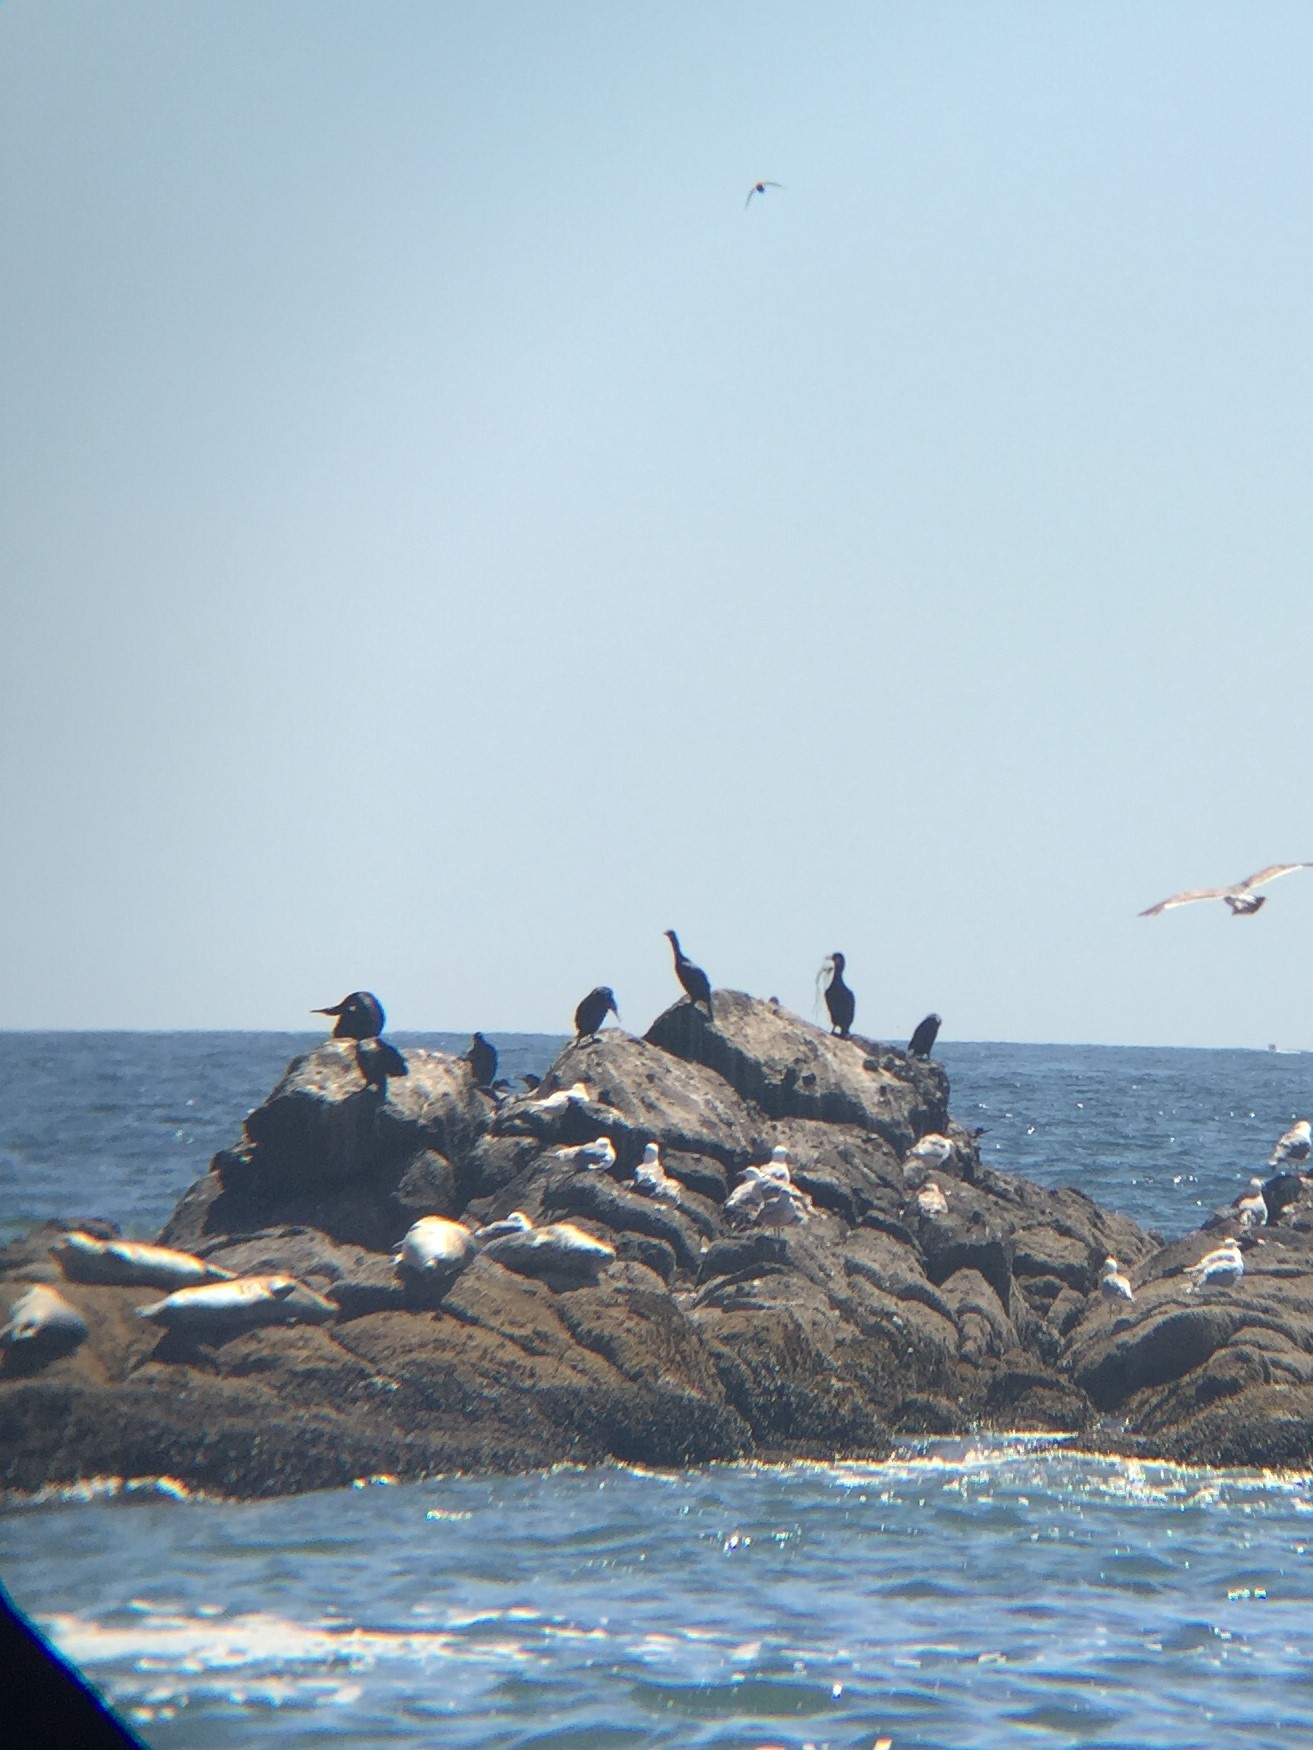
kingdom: Animalia
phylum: Chordata
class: Mammalia
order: Carnivora
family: Phocidae
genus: Phoca
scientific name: Phoca vitulina
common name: Harbor seal
